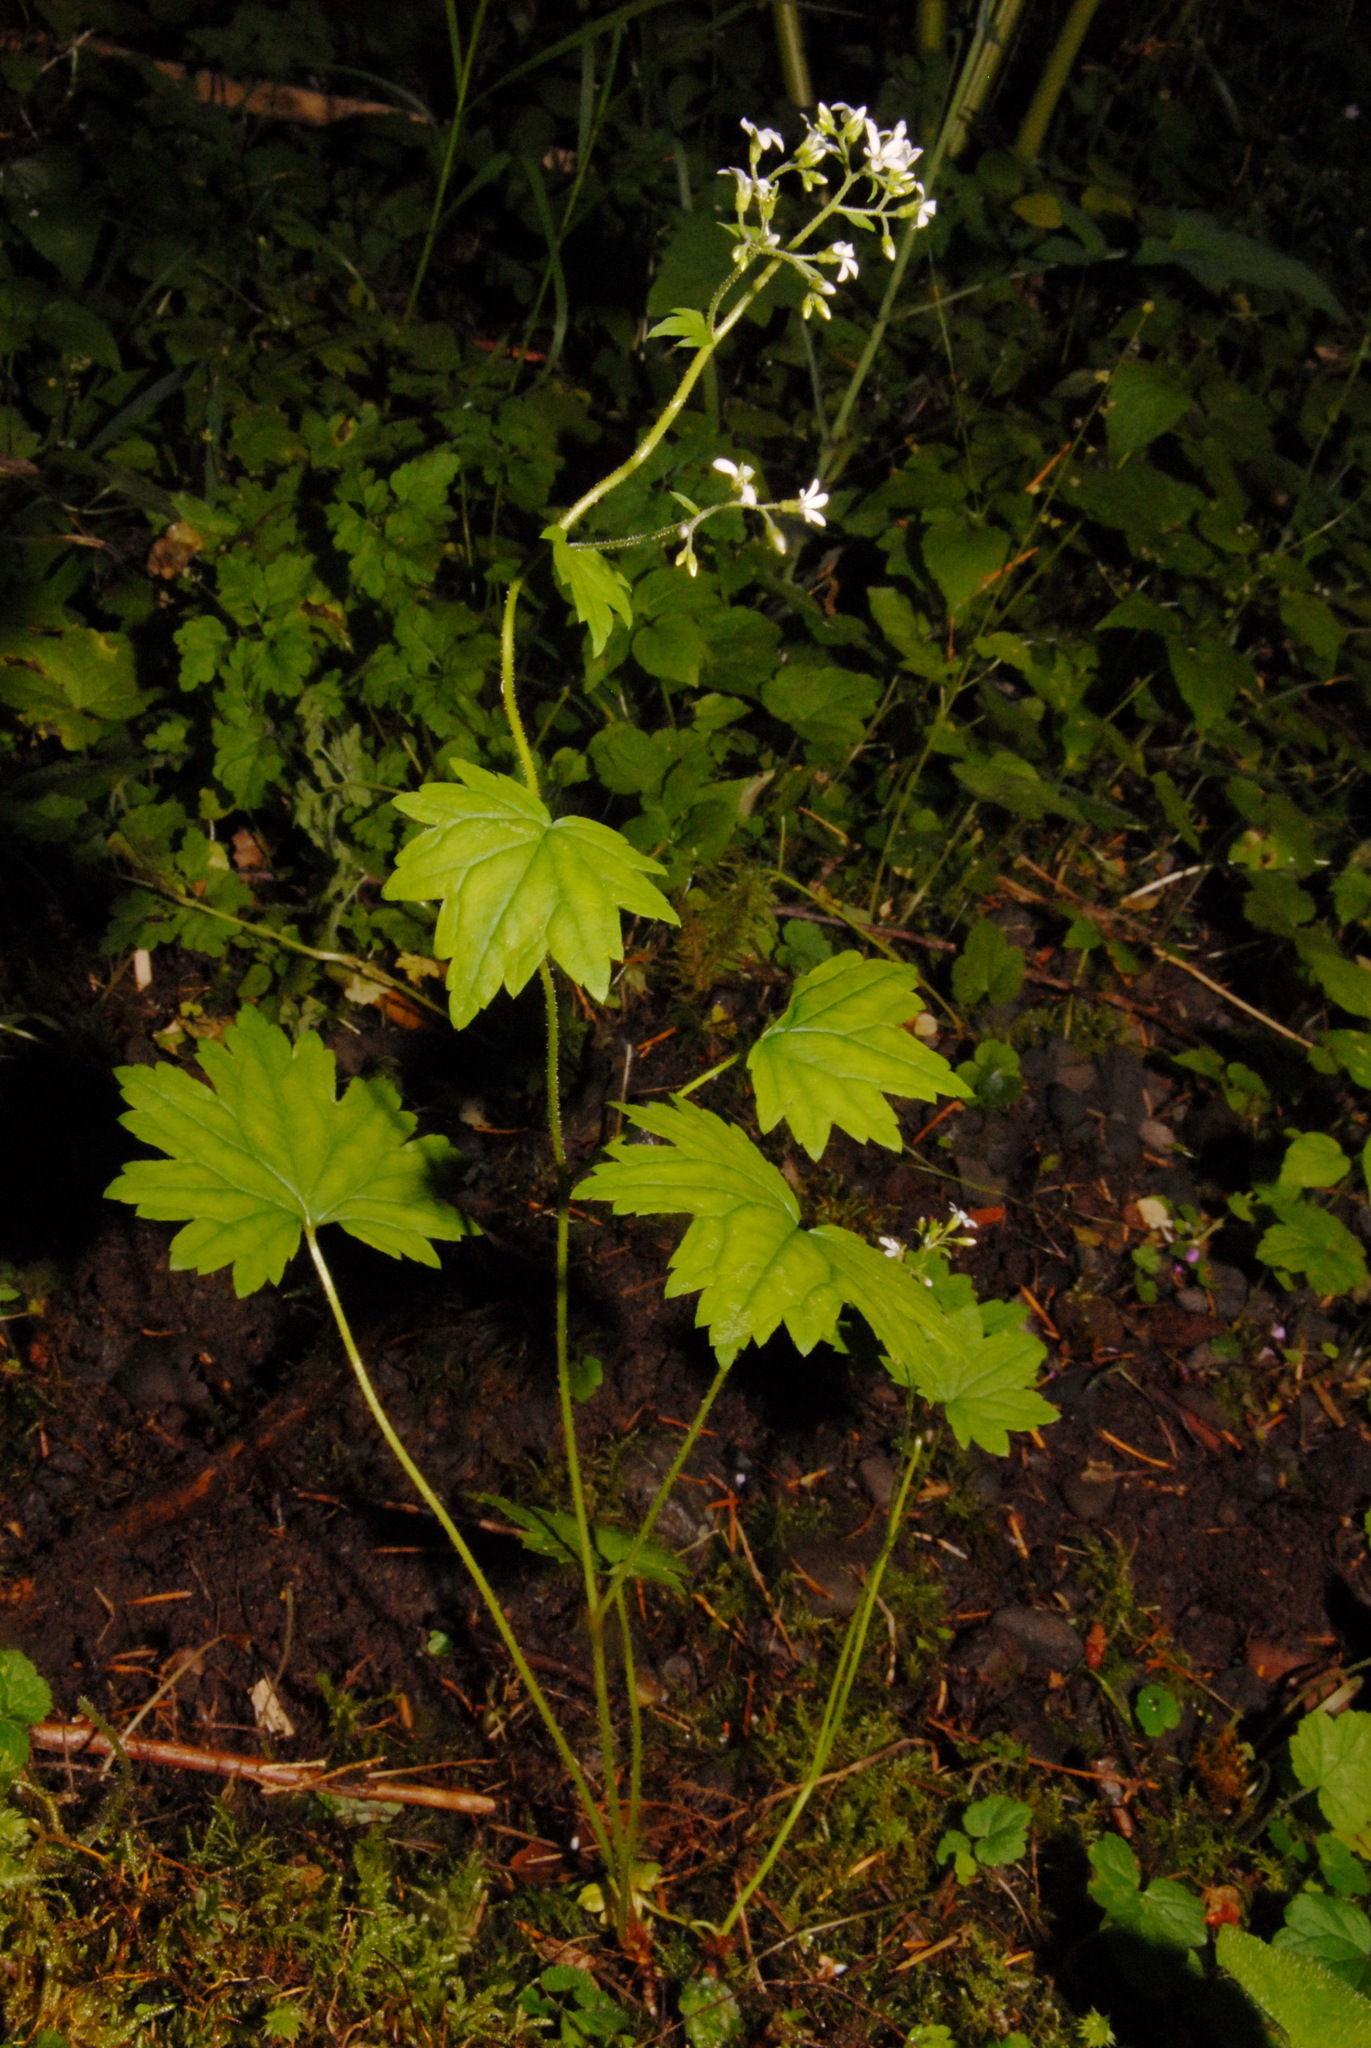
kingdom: Plantae
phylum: Tracheophyta
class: Magnoliopsida
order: Saxifragales
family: Saxifragaceae
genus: Boykinia
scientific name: Boykinia occidentalis
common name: Coast boykinia
